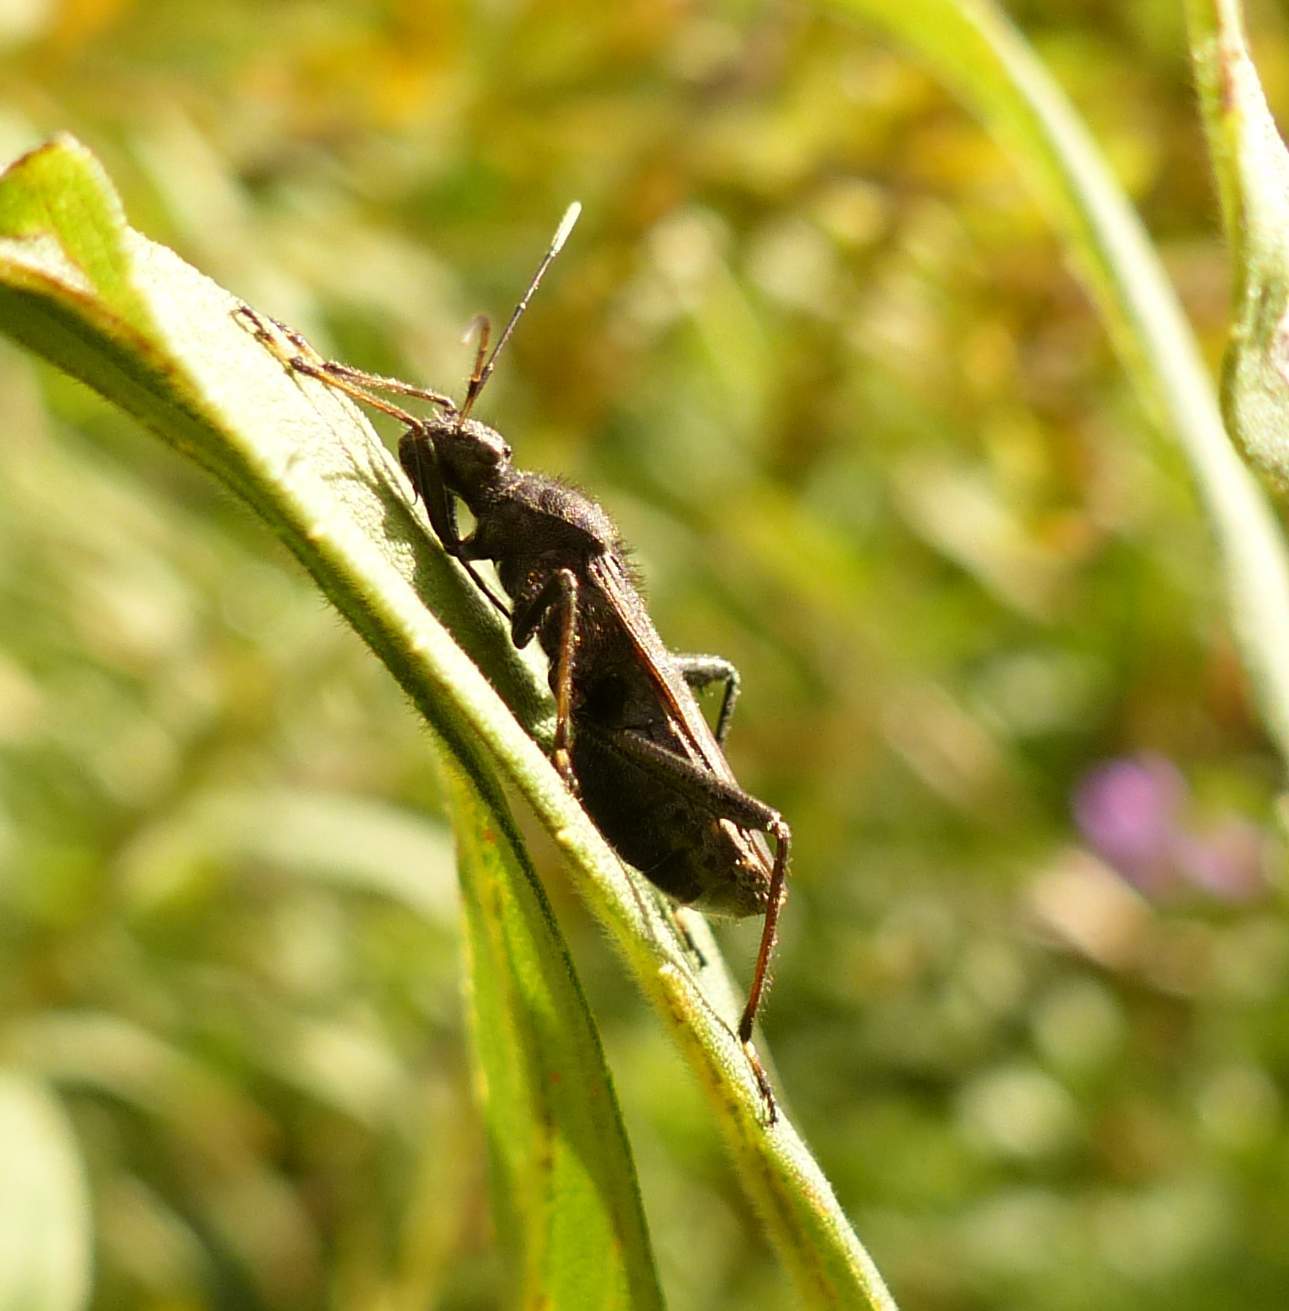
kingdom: Animalia
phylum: Arthropoda
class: Insecta
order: Hemiptera
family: Alydidae
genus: Alydus
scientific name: Alydus eurinus
